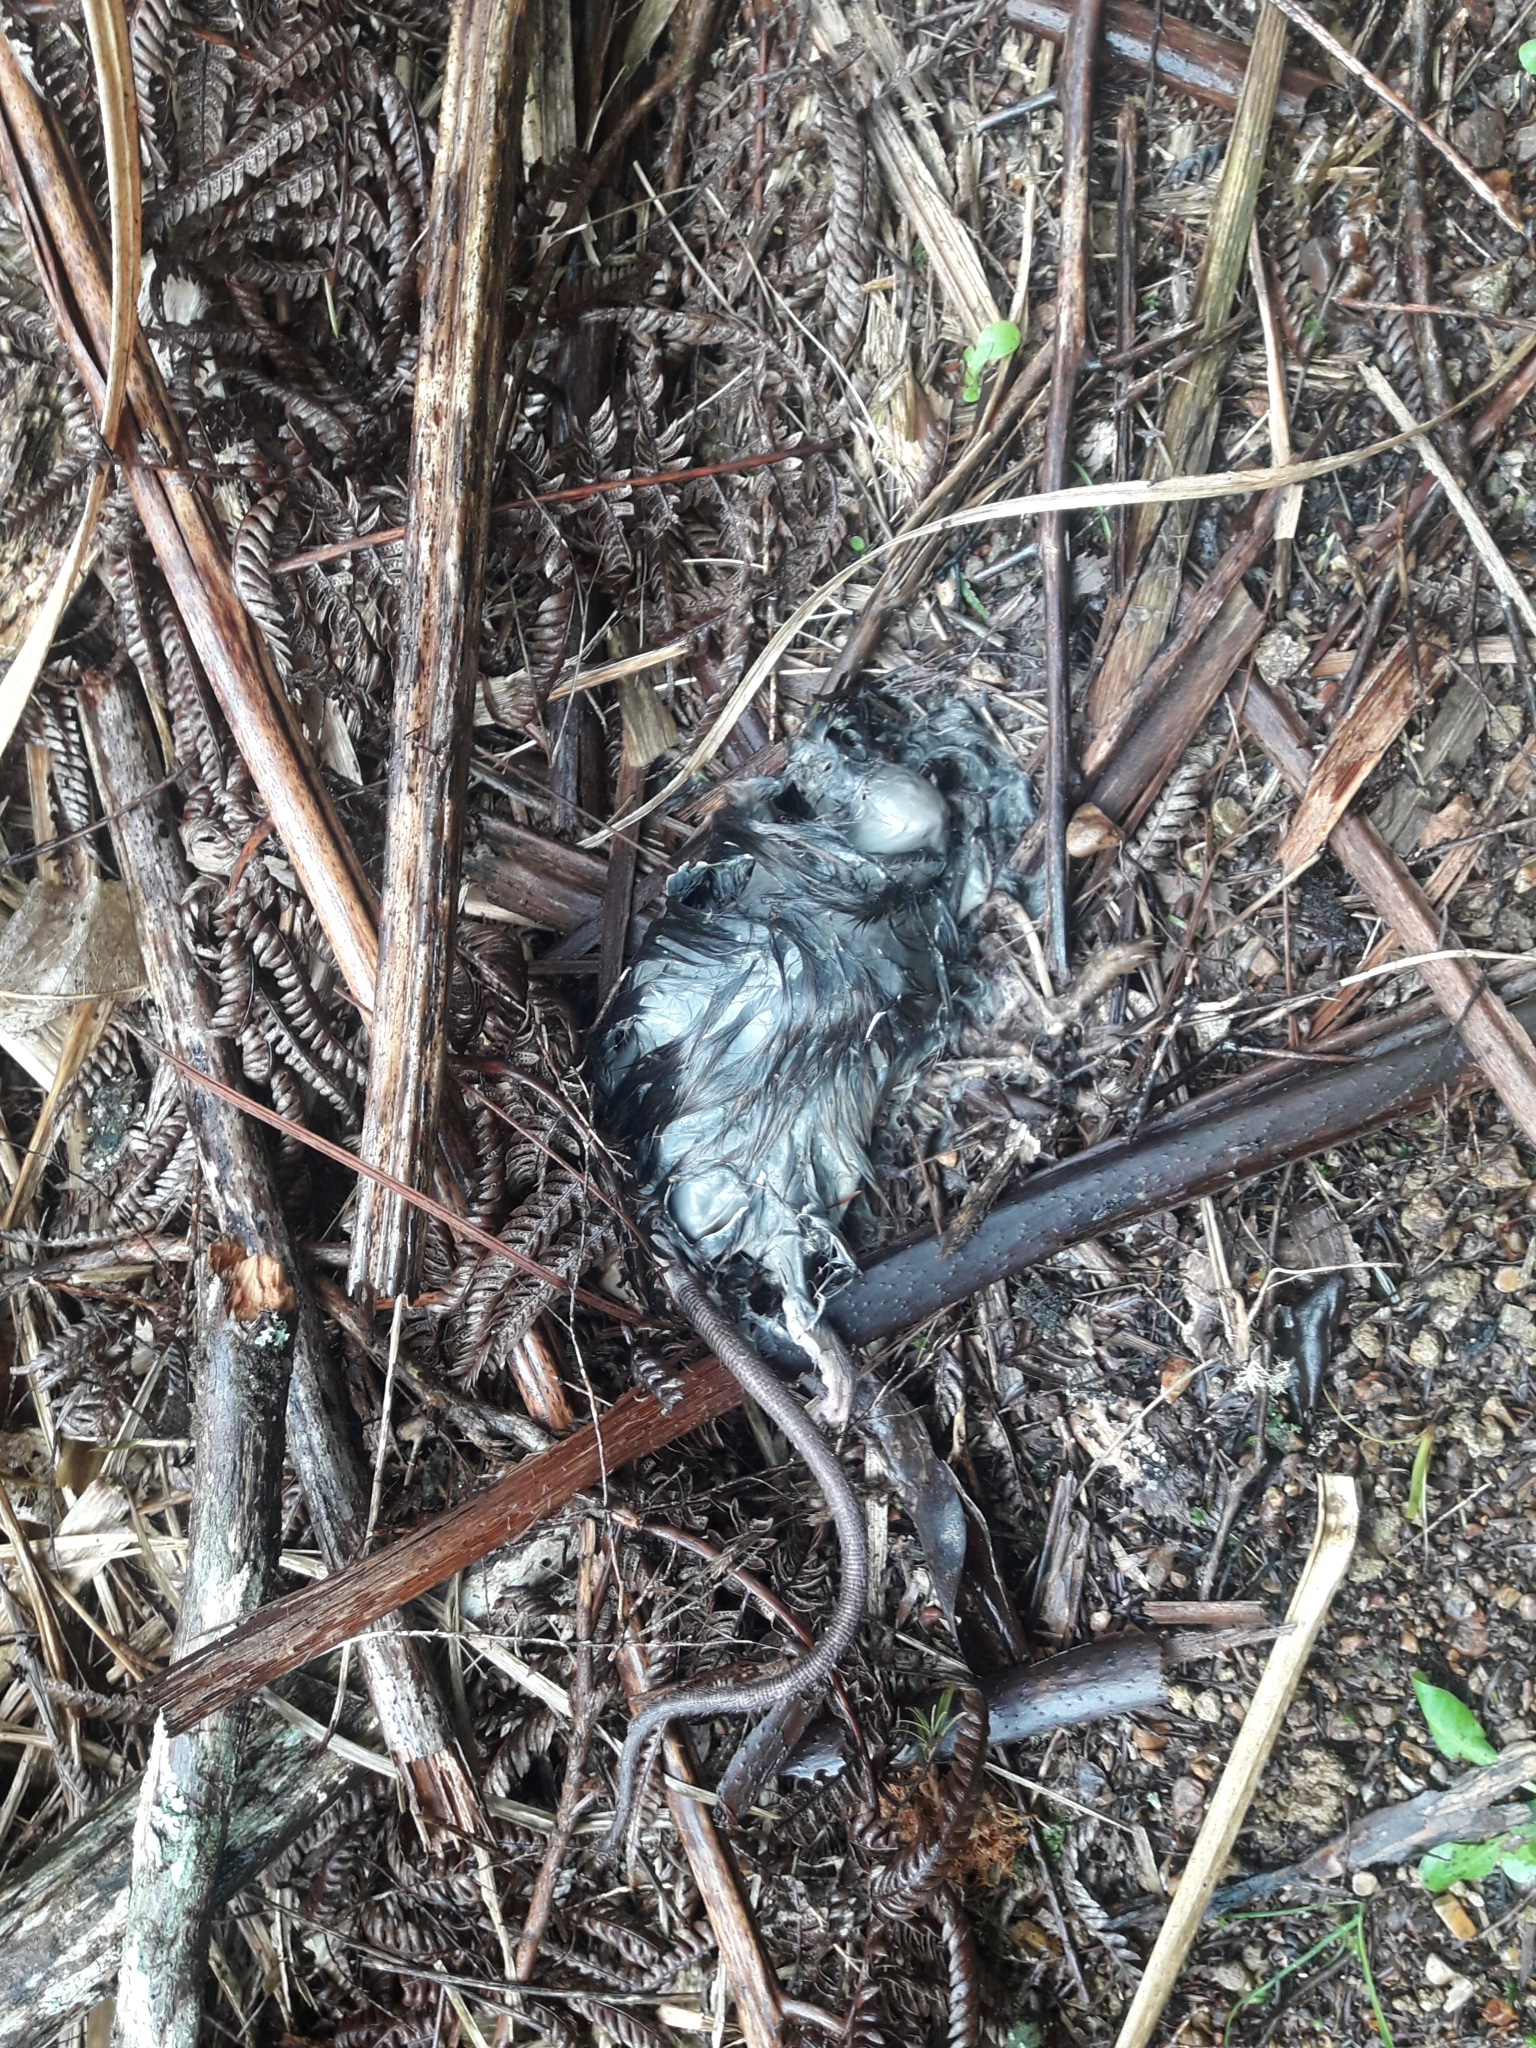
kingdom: Animalia
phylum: Chordata
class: Mammalia
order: Rodentia
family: Muridae
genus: Rattus
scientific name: Rattus rattus
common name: Black rat
